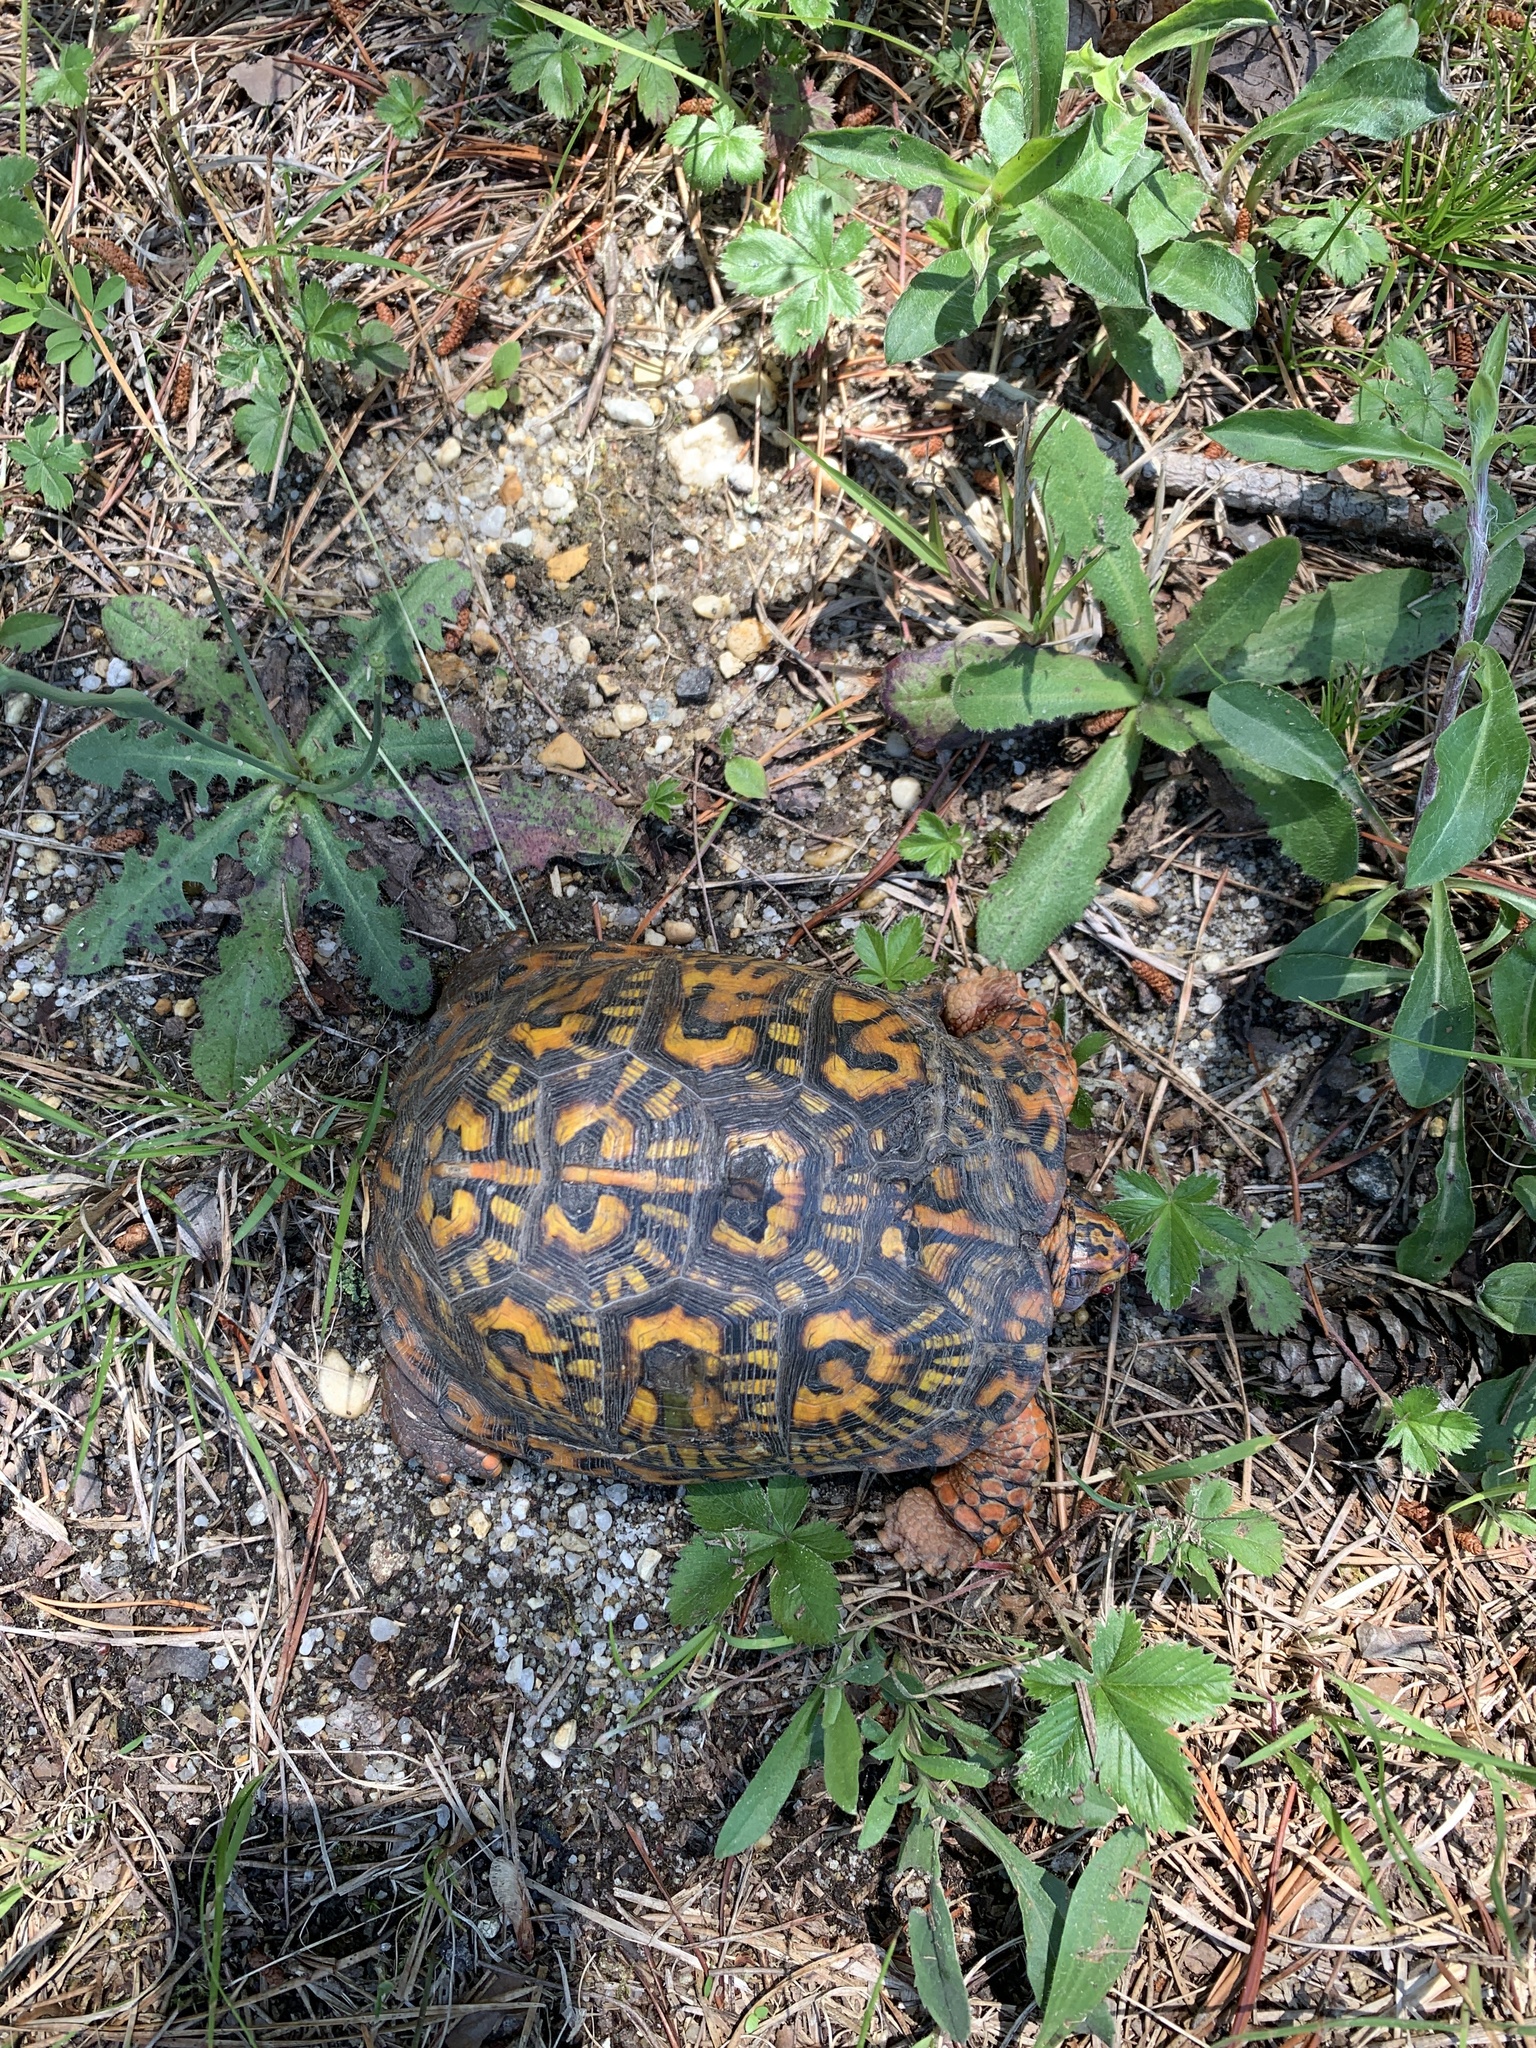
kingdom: Animalia
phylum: Chordata
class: Testudines
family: Emydidae
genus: Terrapene
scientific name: Terrapene carolina
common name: Common box turtle
